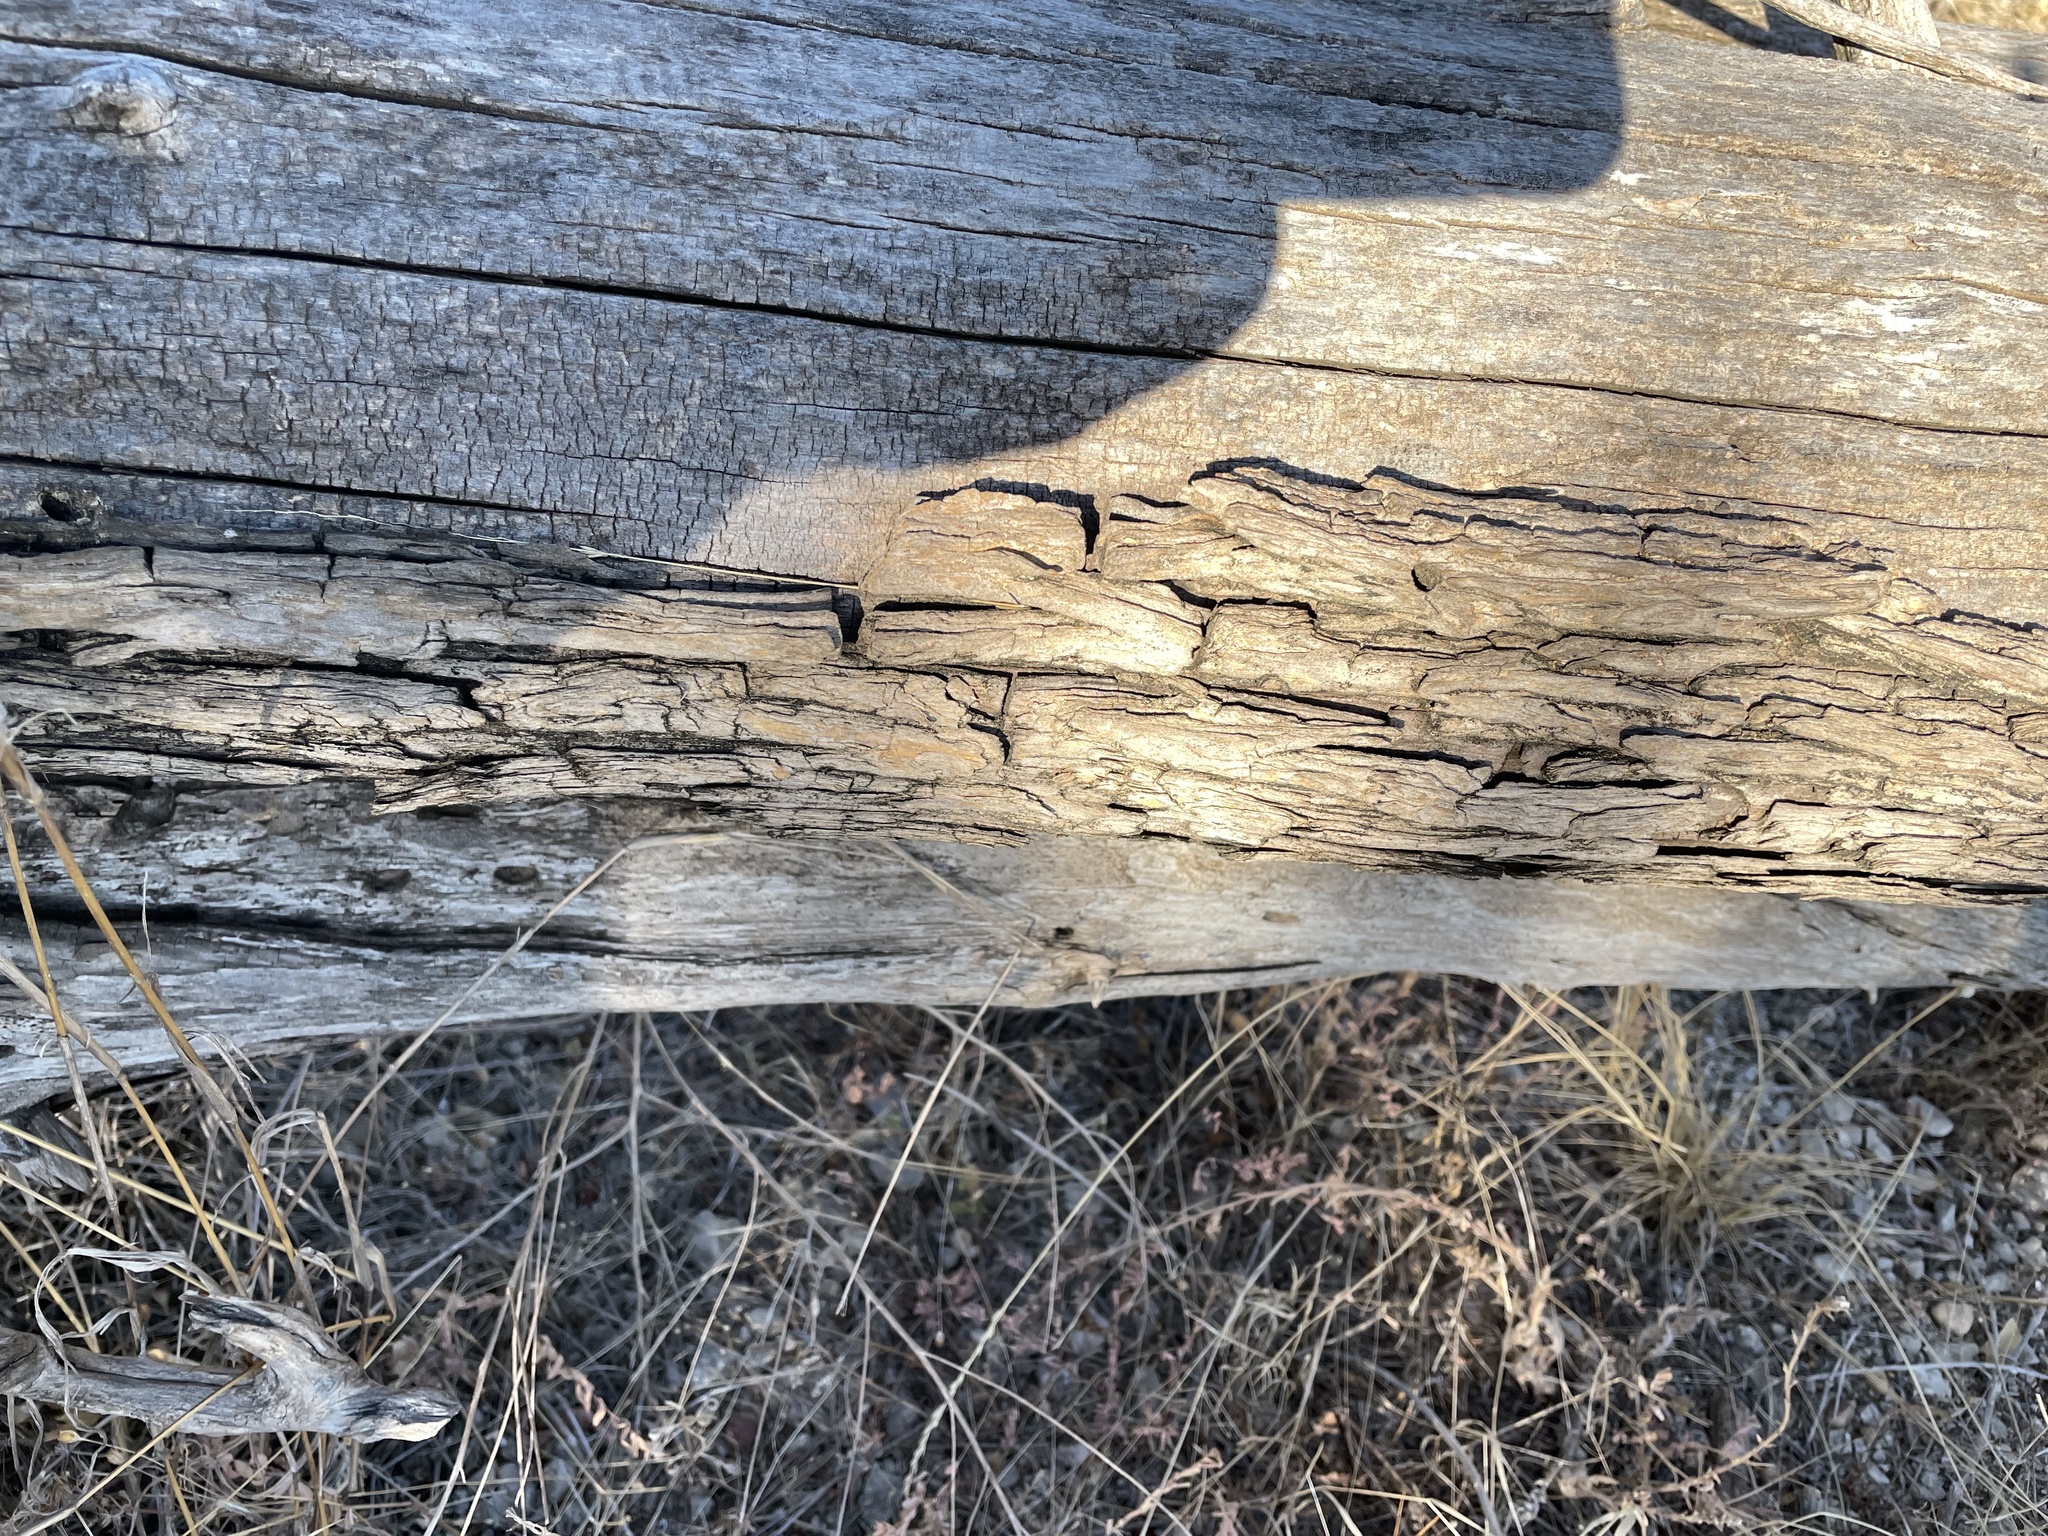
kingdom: Plantae
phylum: Tracheophyta
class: Magnoliopsida
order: Rosales
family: Ulmaceae
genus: Ulmus
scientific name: Ulmus crassifolia
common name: Basket elm
